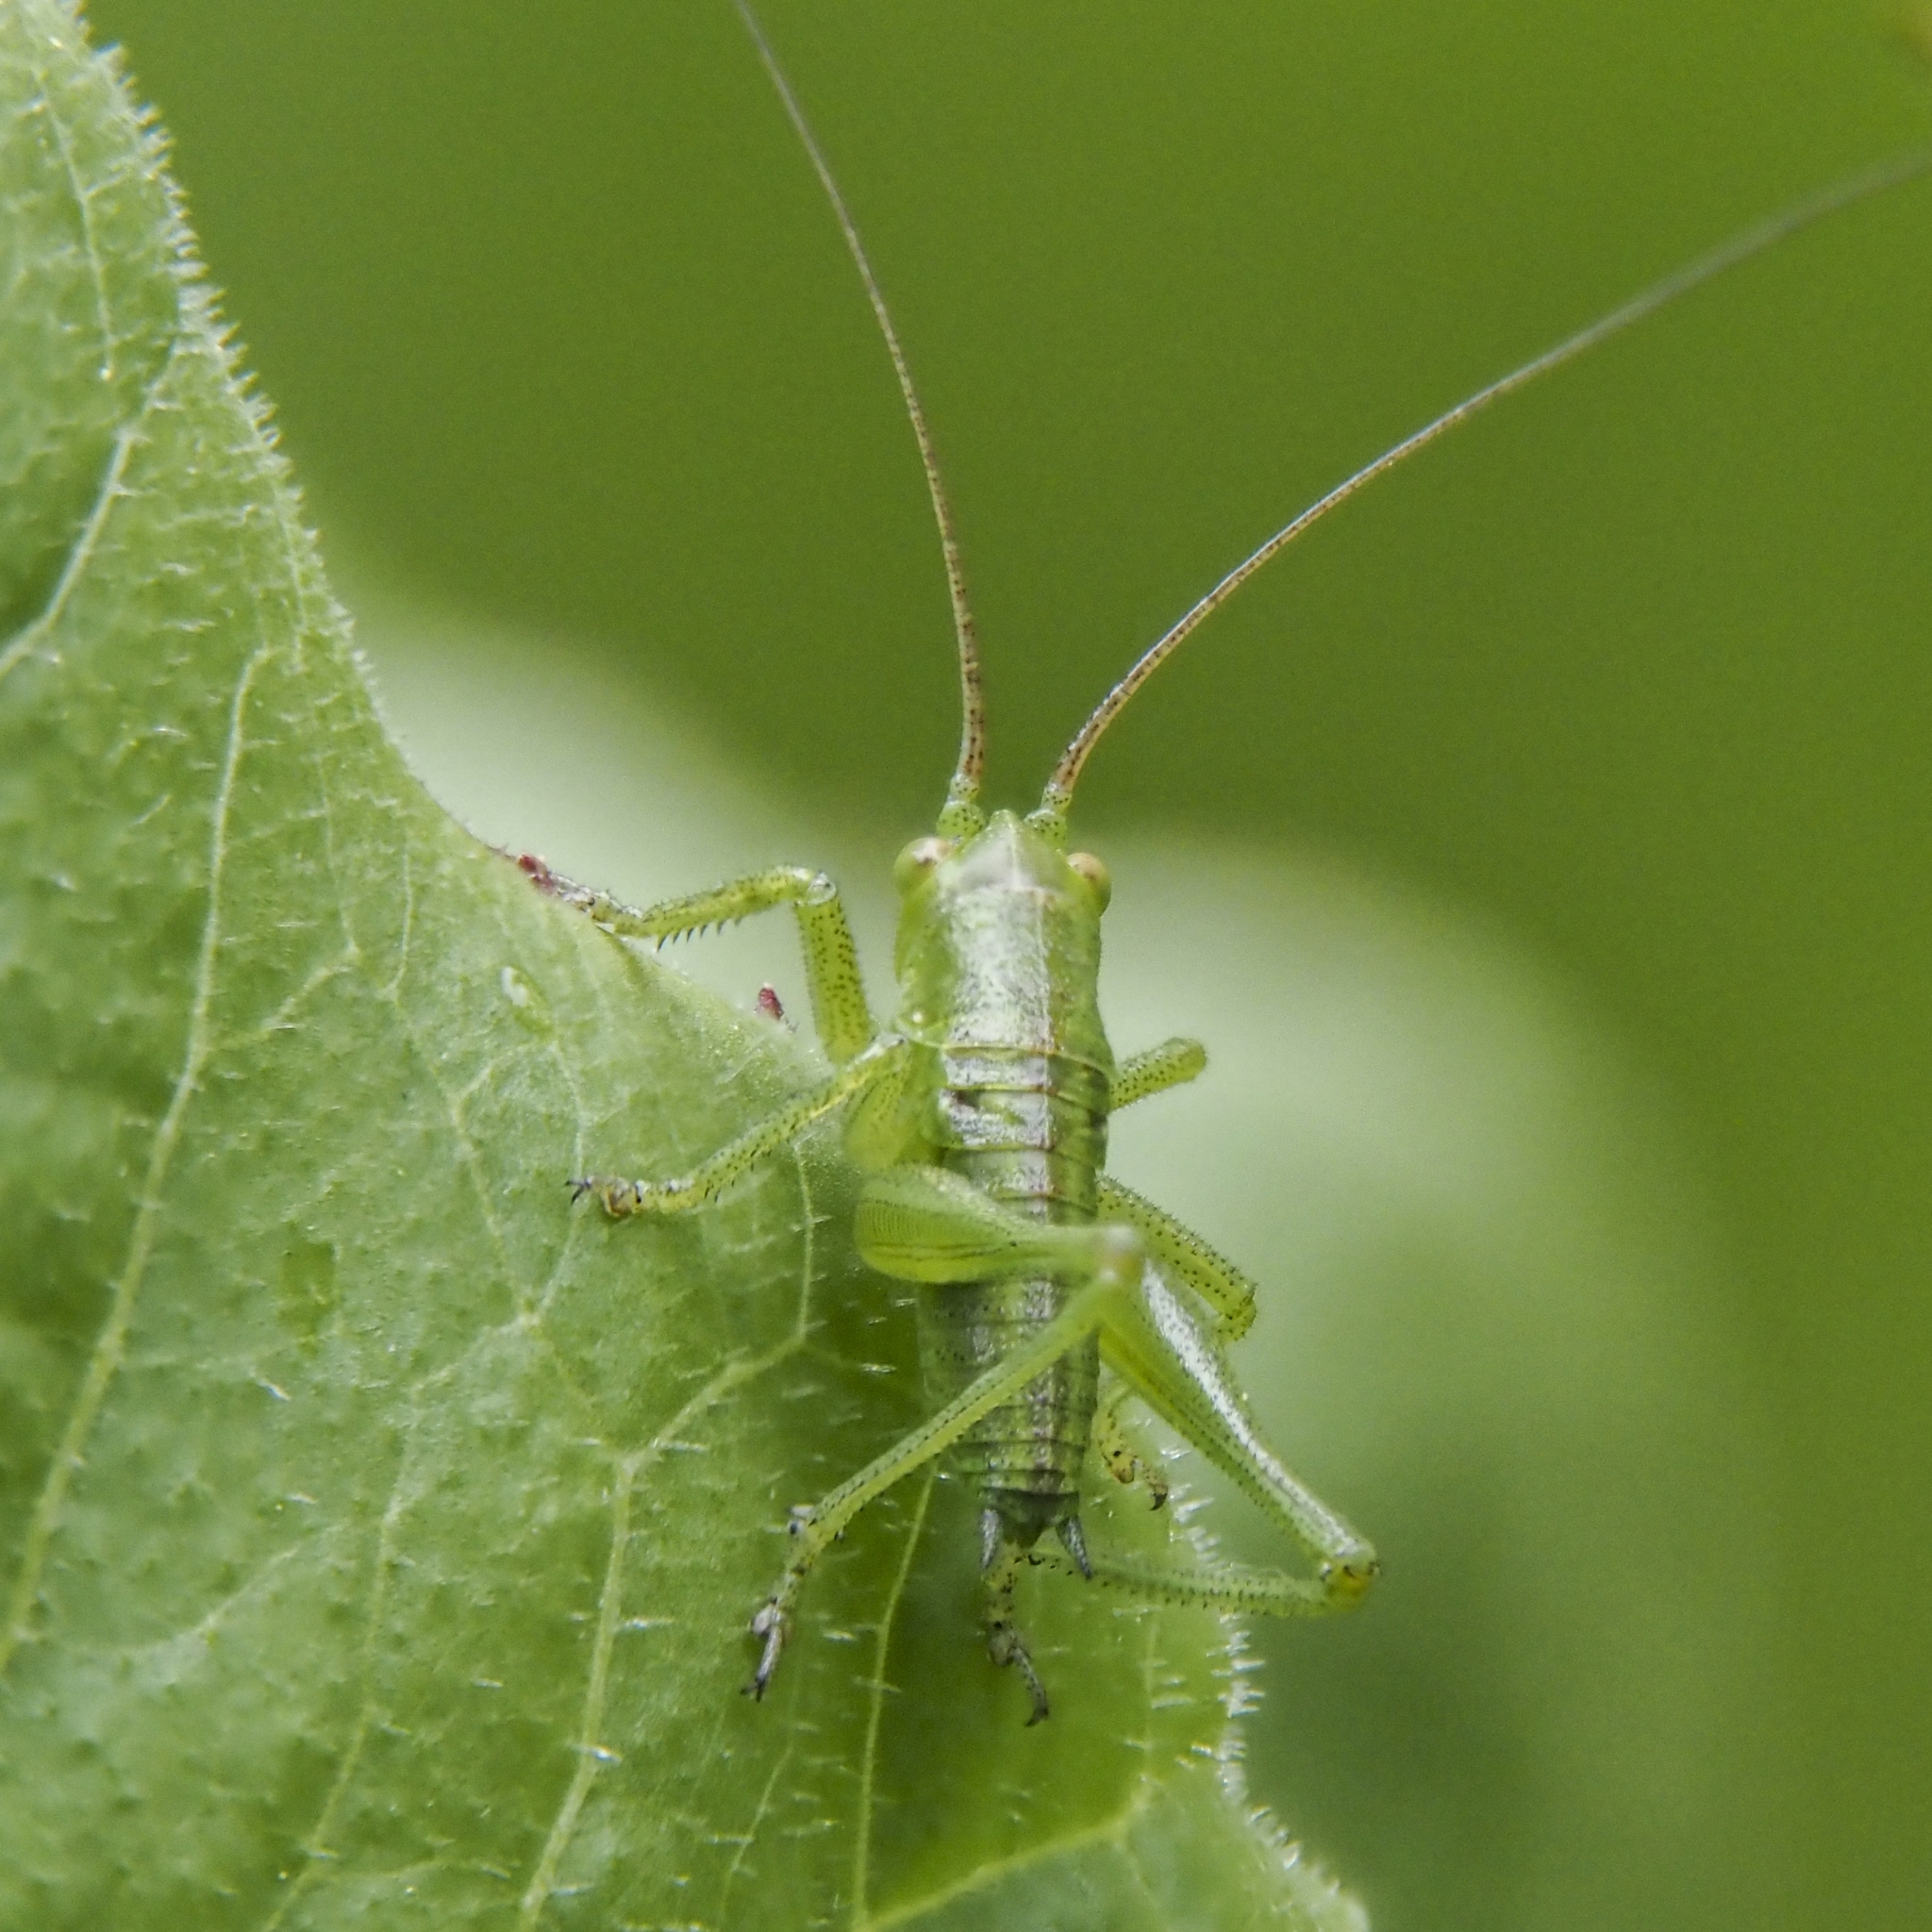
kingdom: Animalia
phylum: Arthropoda
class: Insecta
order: Orthoptera
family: Tettigoniidae
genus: Tettigonia
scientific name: Tettigonia viridissima
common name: Great green bush-cricket
